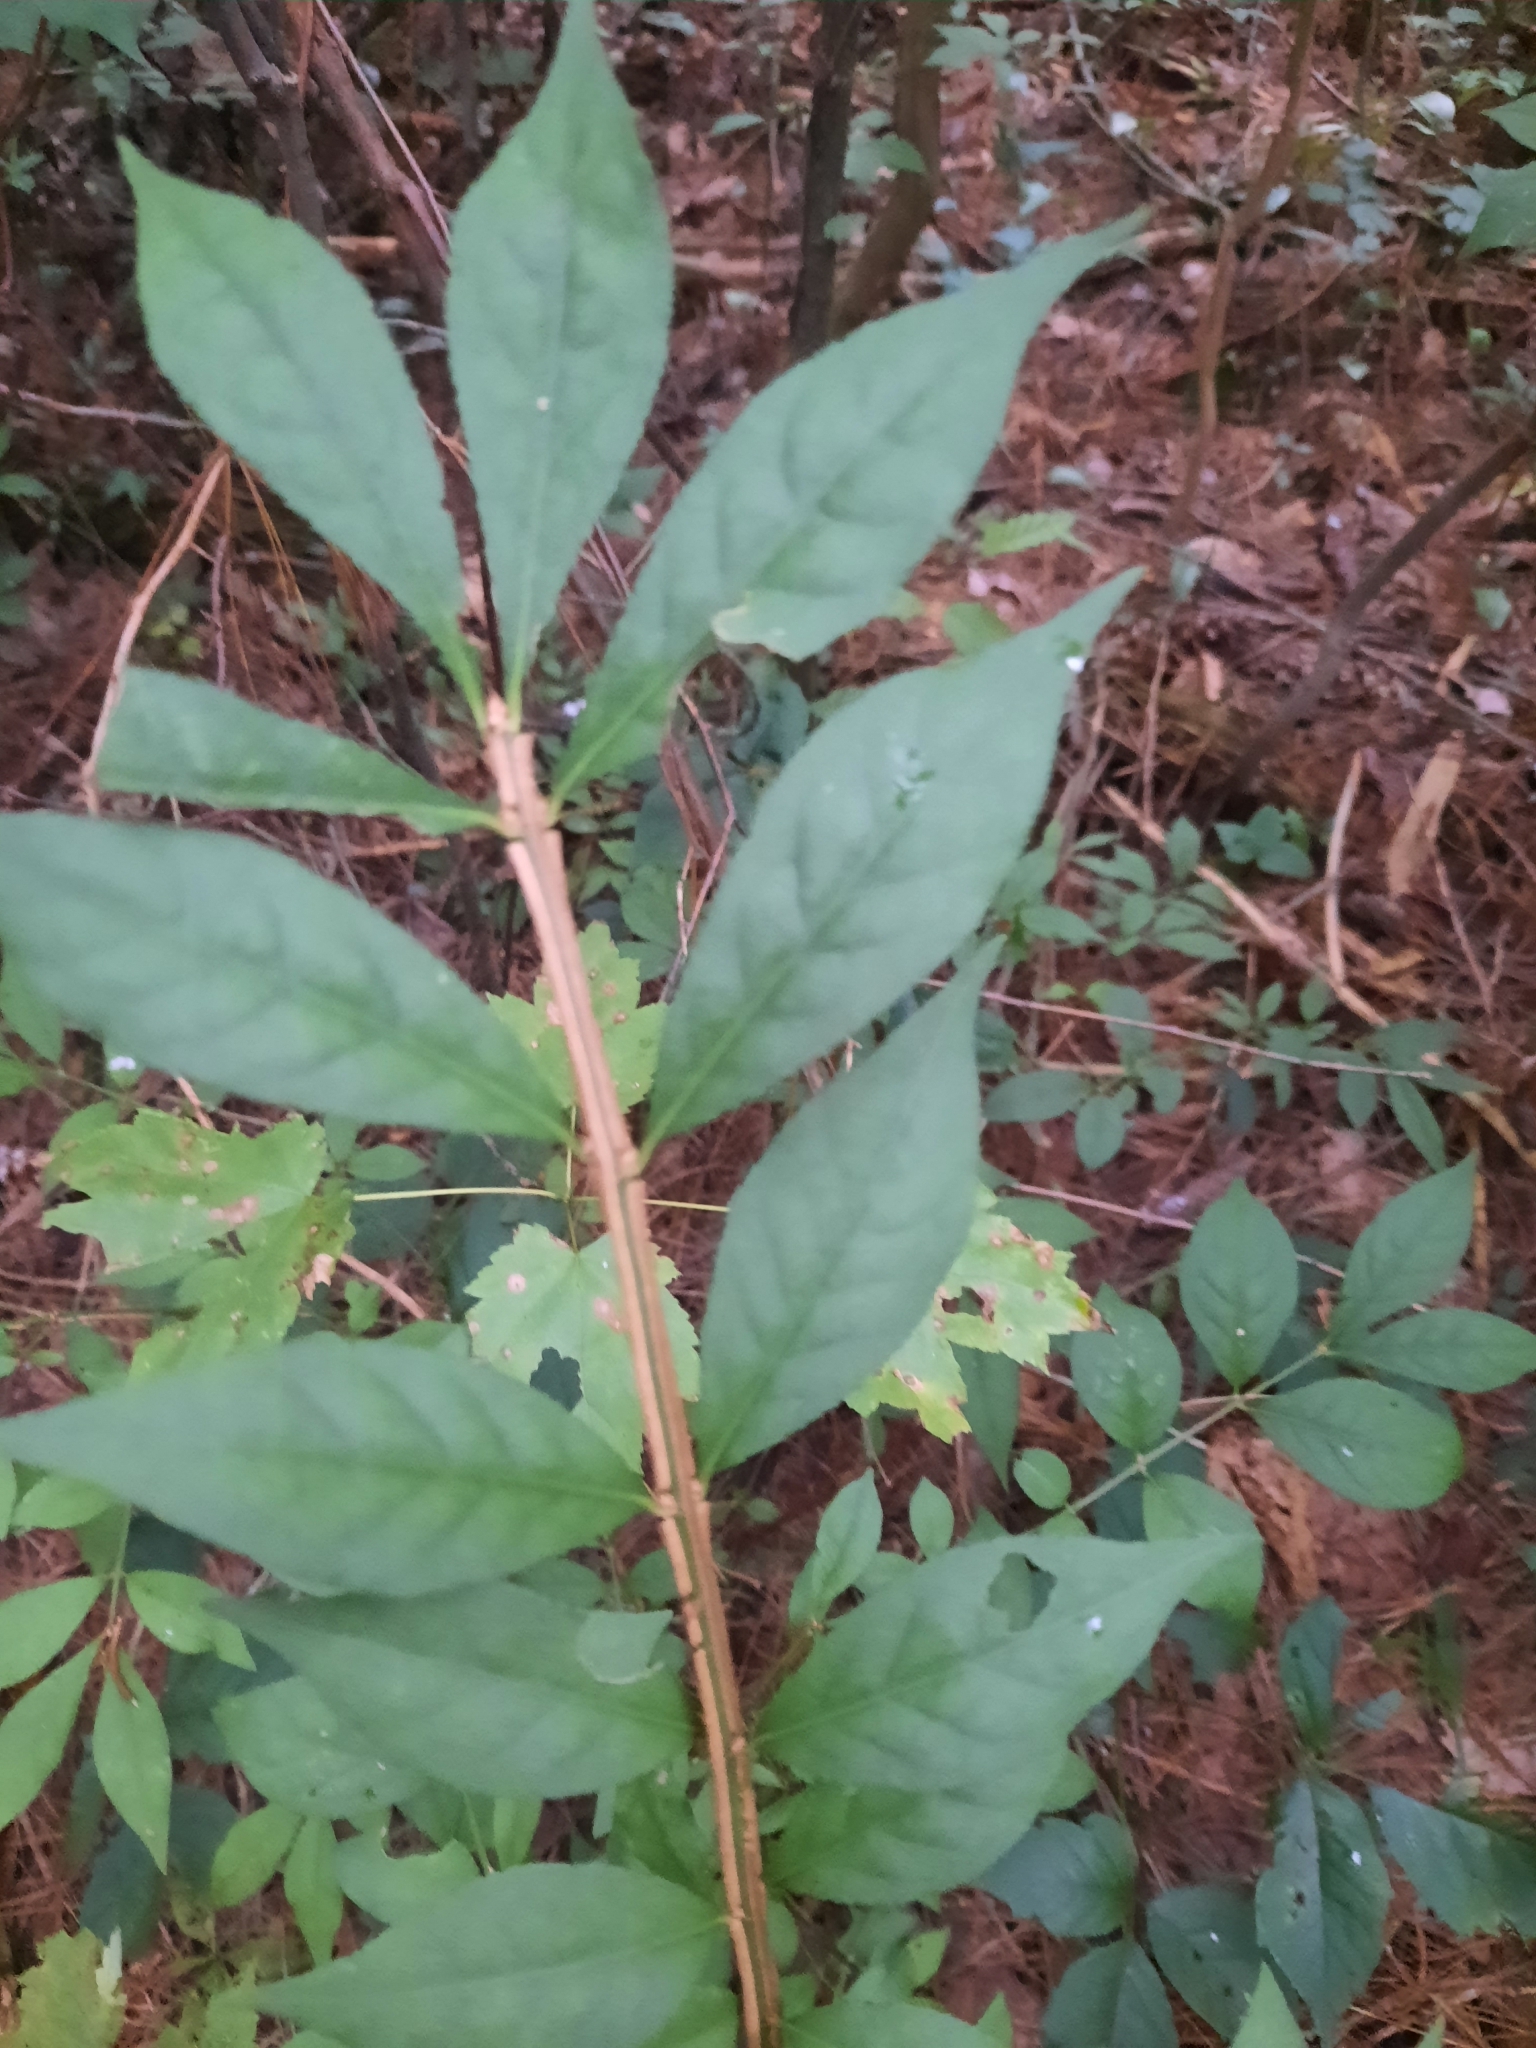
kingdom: Plantae
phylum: Tracheophyta
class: Magnoliopsida
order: Celastrales
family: Celastraceae
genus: Euonymus
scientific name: Euonymus alatus
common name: Winged euonymus
